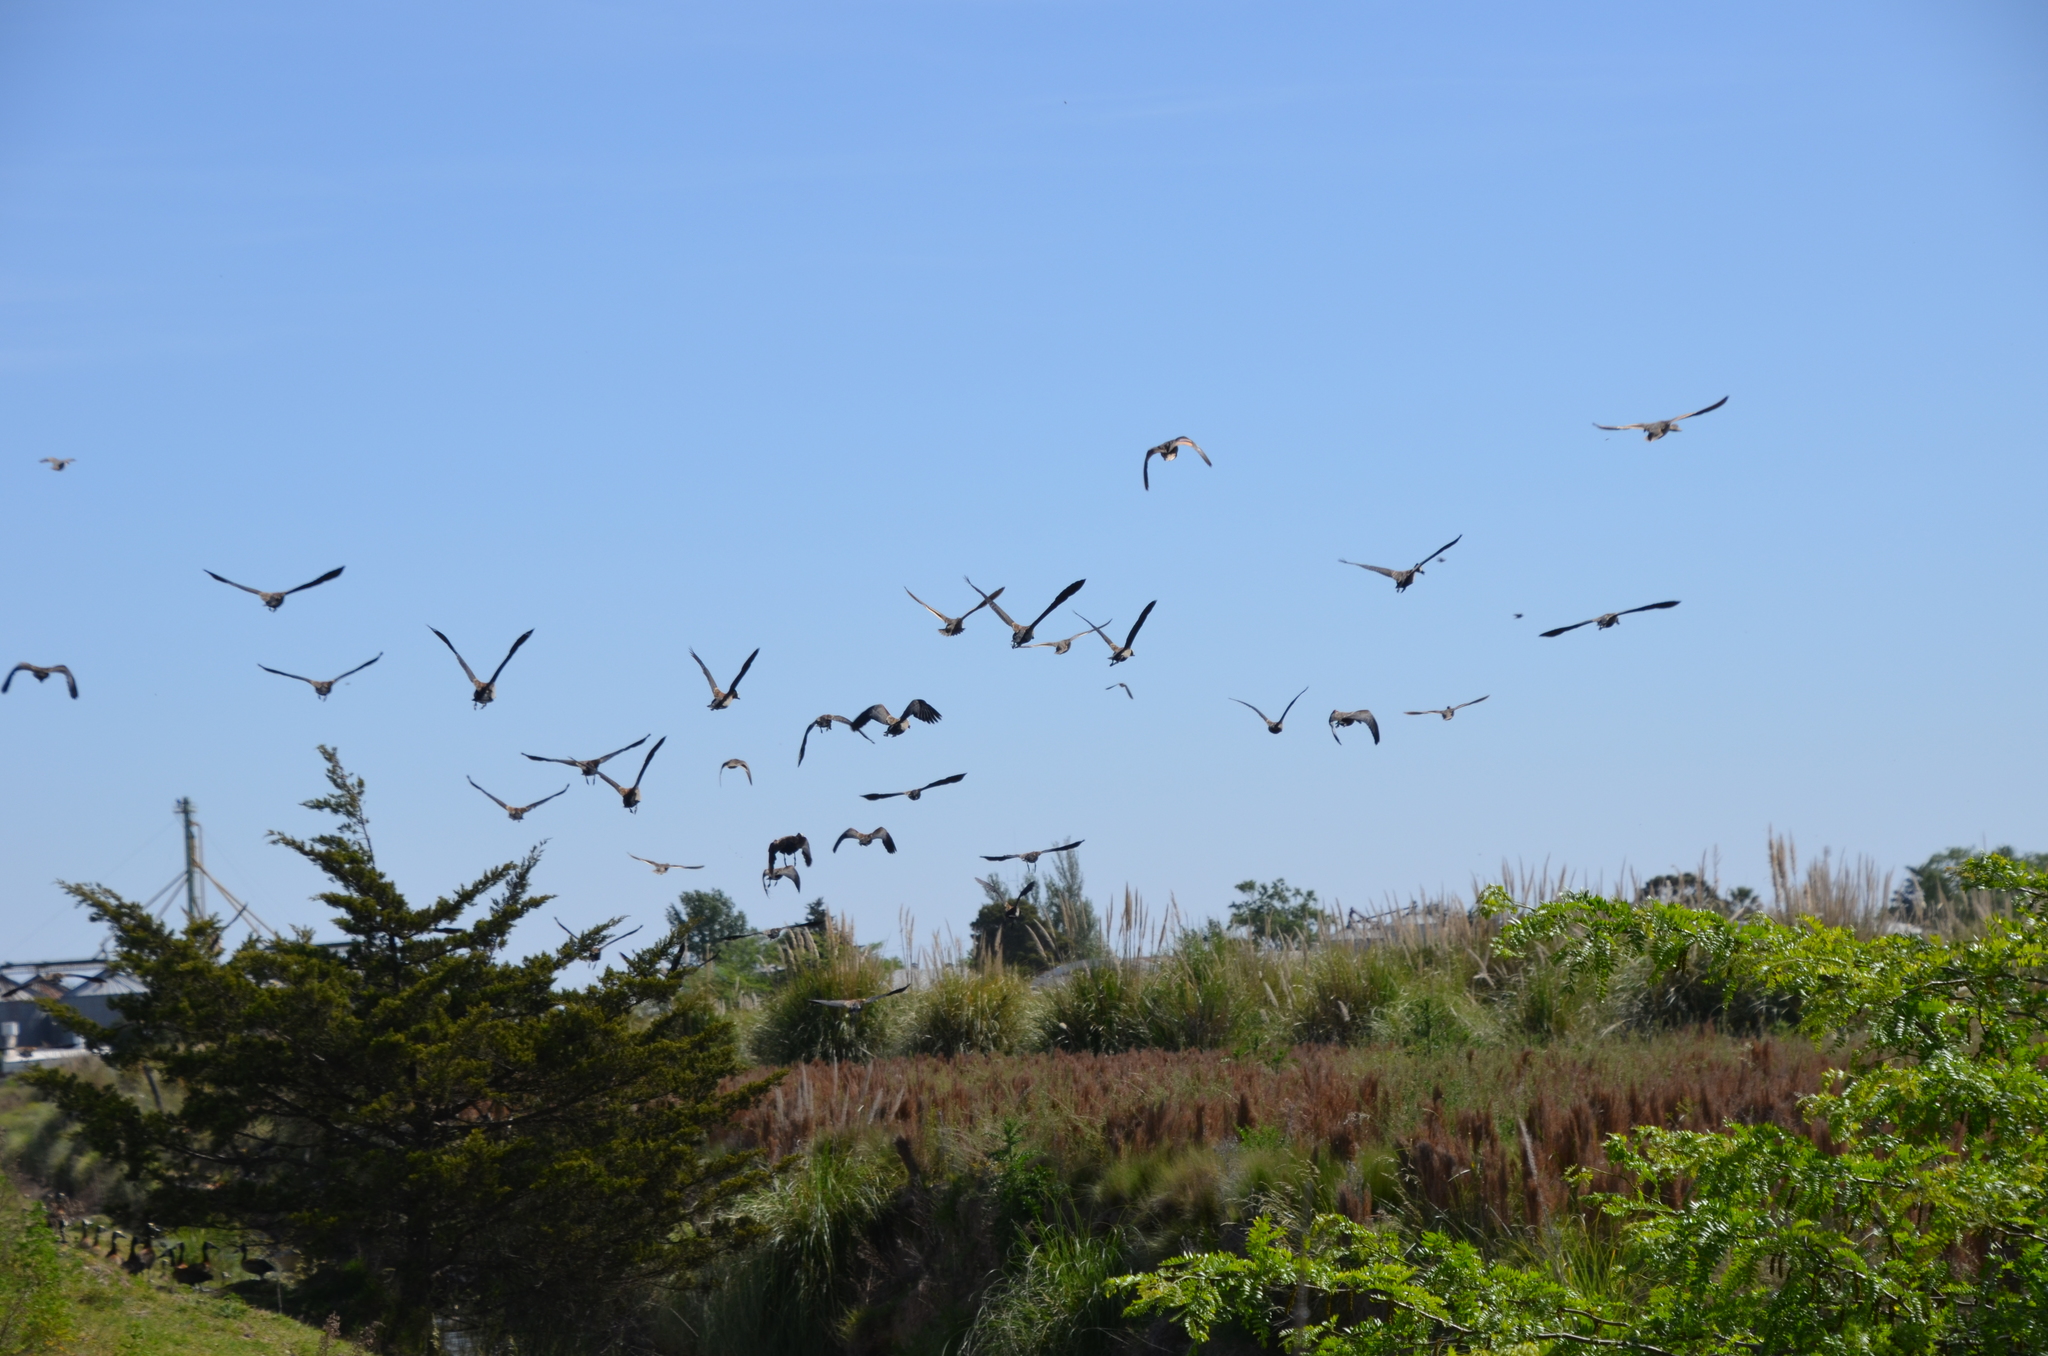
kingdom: Animalia
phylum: Chordata
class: Aves
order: Anseriformes
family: Anatidae
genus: Dendrocygna
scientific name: Dendrocygna viduata
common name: White-faced whistling duck
